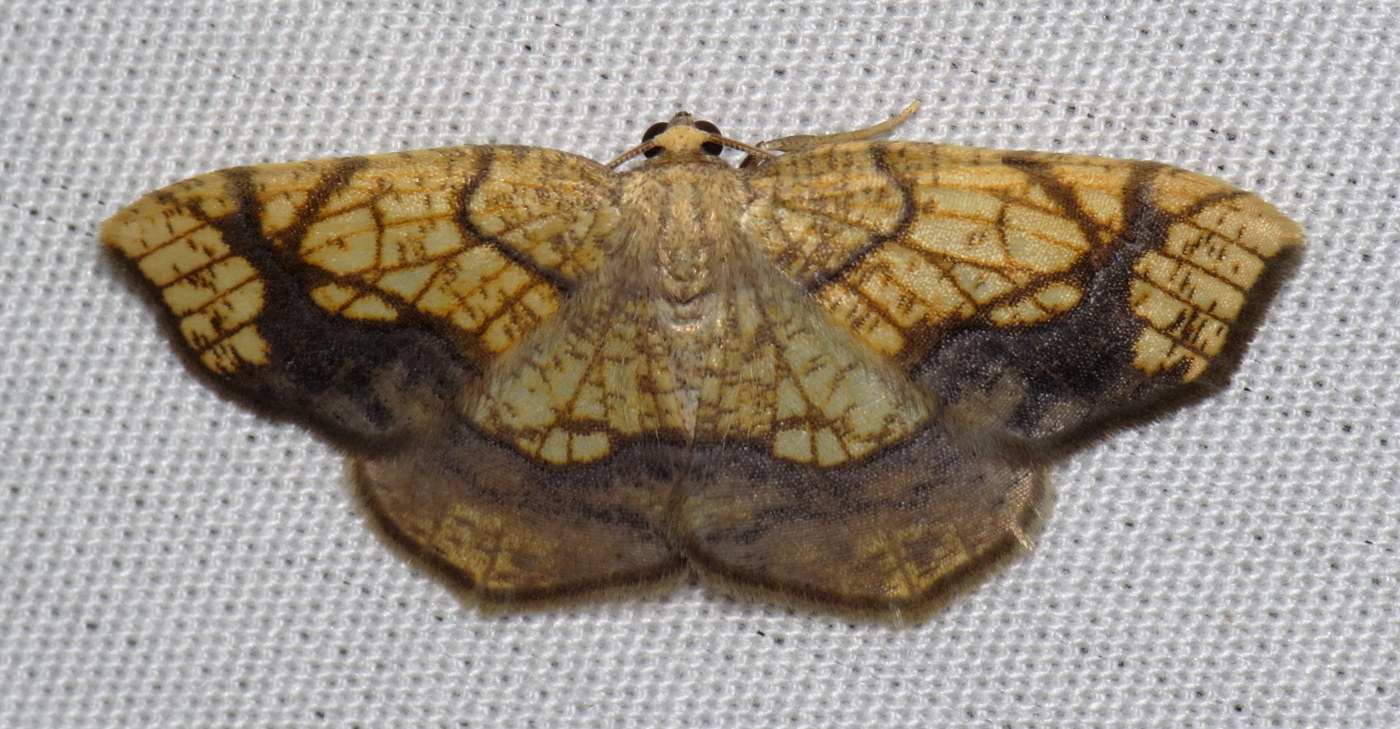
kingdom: Animalia
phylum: Arthropoda
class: Insecta
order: Lepidoptera
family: Geometridae
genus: Nematocampa
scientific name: Nematocampa resistaria
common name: Horned spanworm moth
